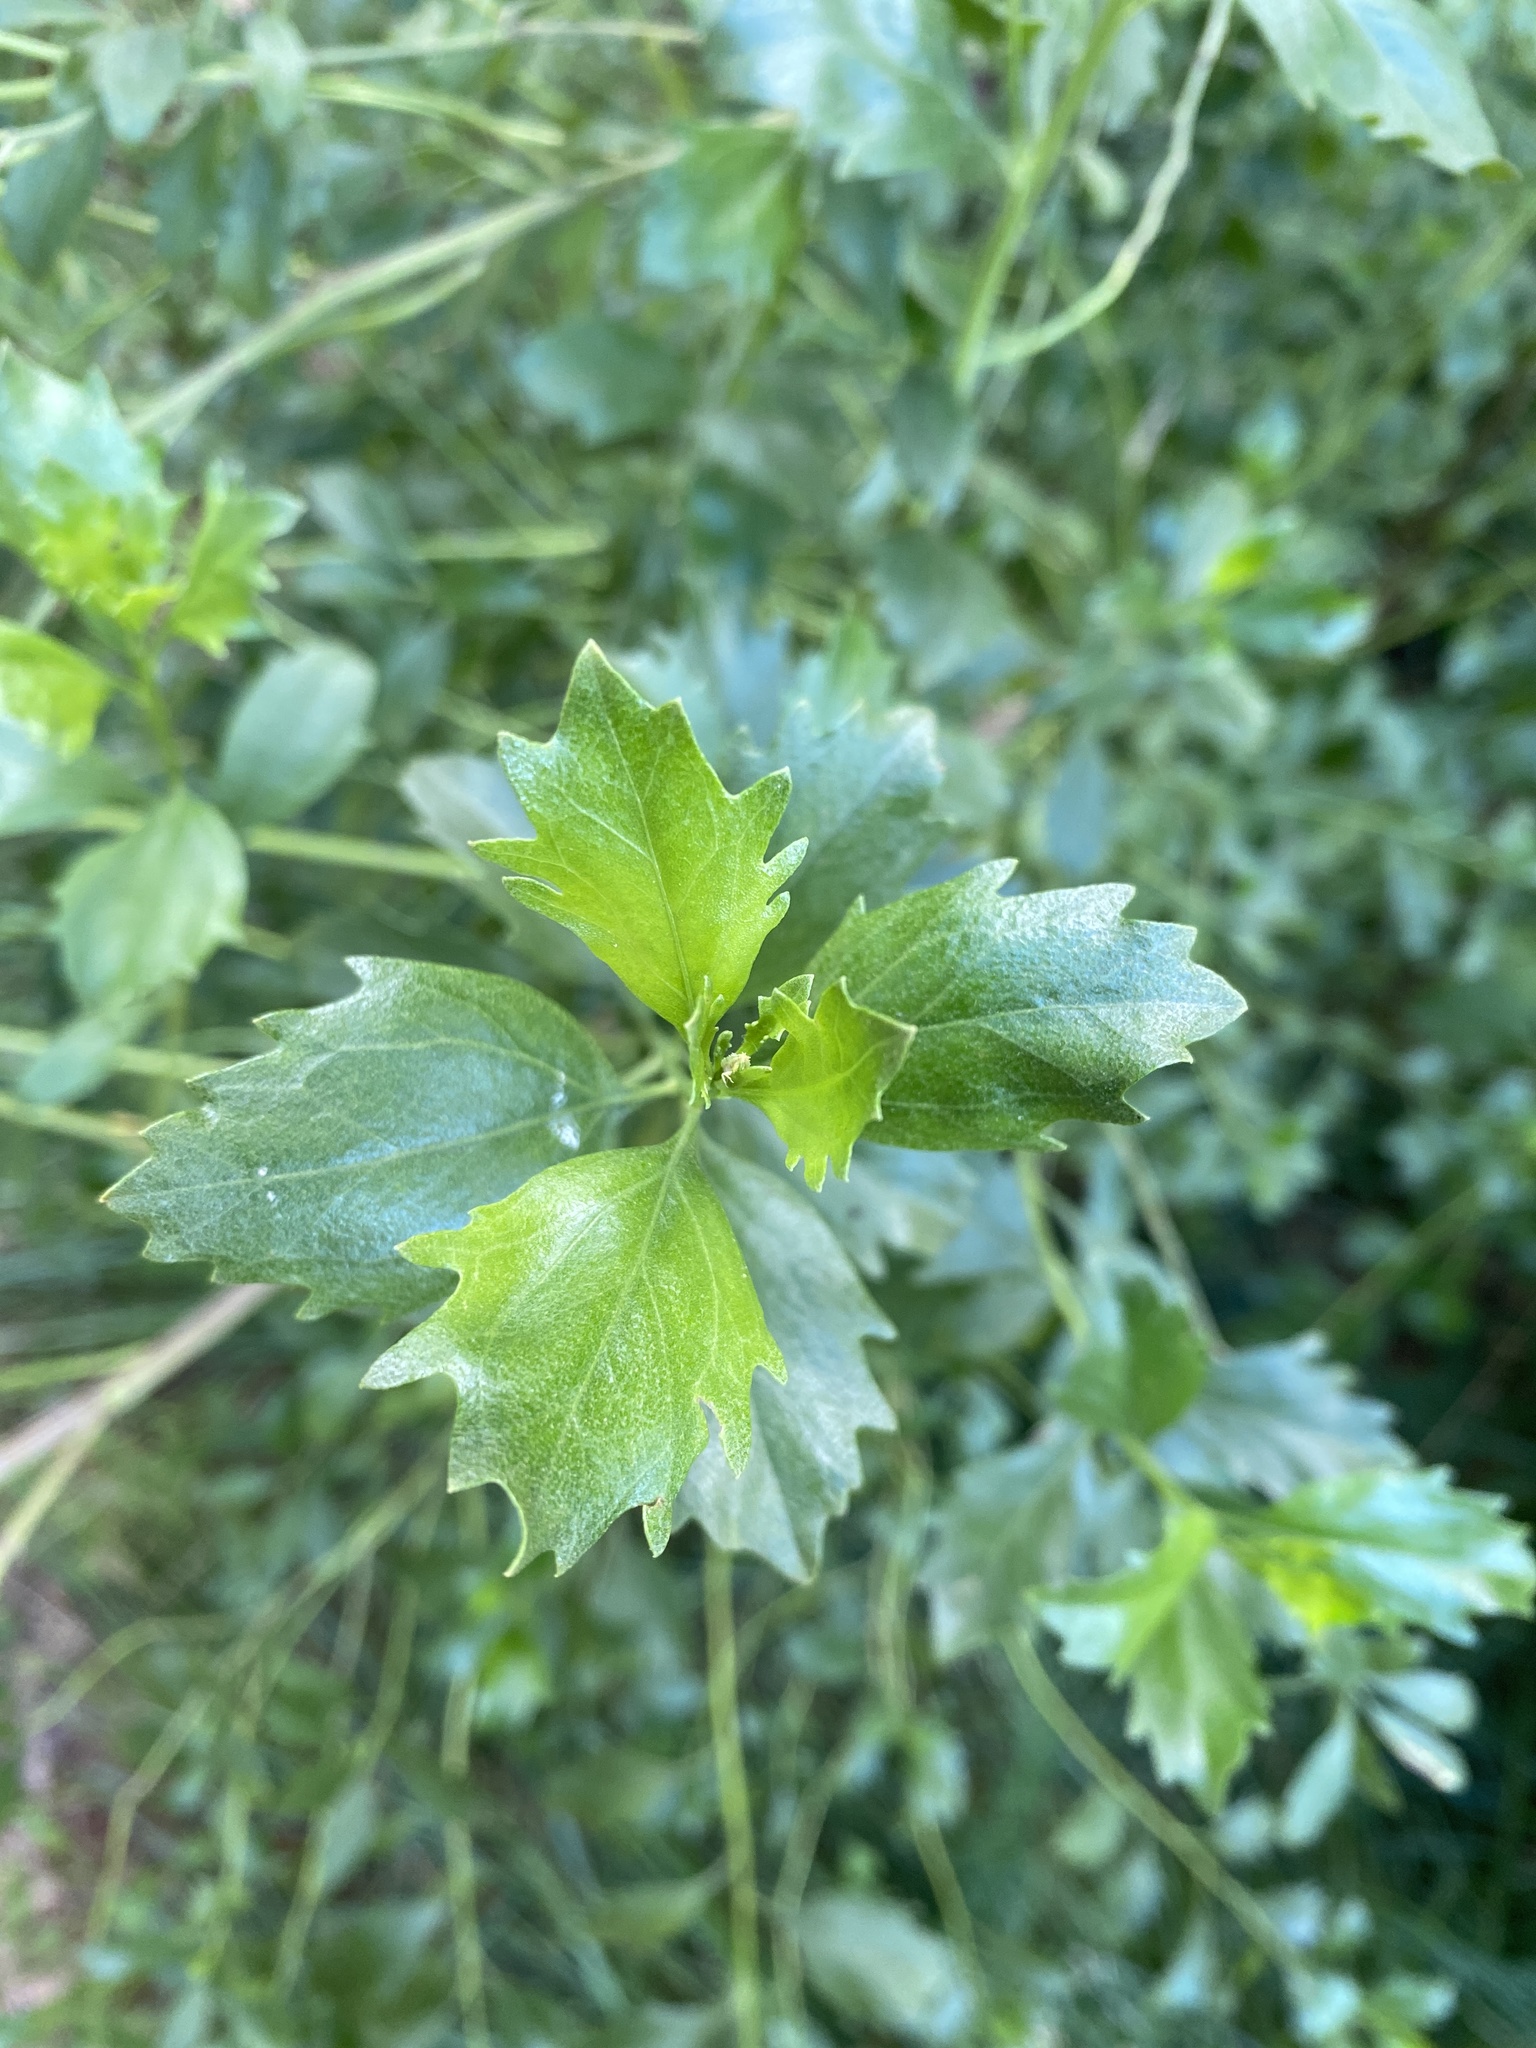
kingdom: Plantae
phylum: Tracheophyta
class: Magnoliopsida
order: Asterales
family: Asteraceae
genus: Baccharis
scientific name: Baccharis halimifolia
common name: Eastern baccharis
